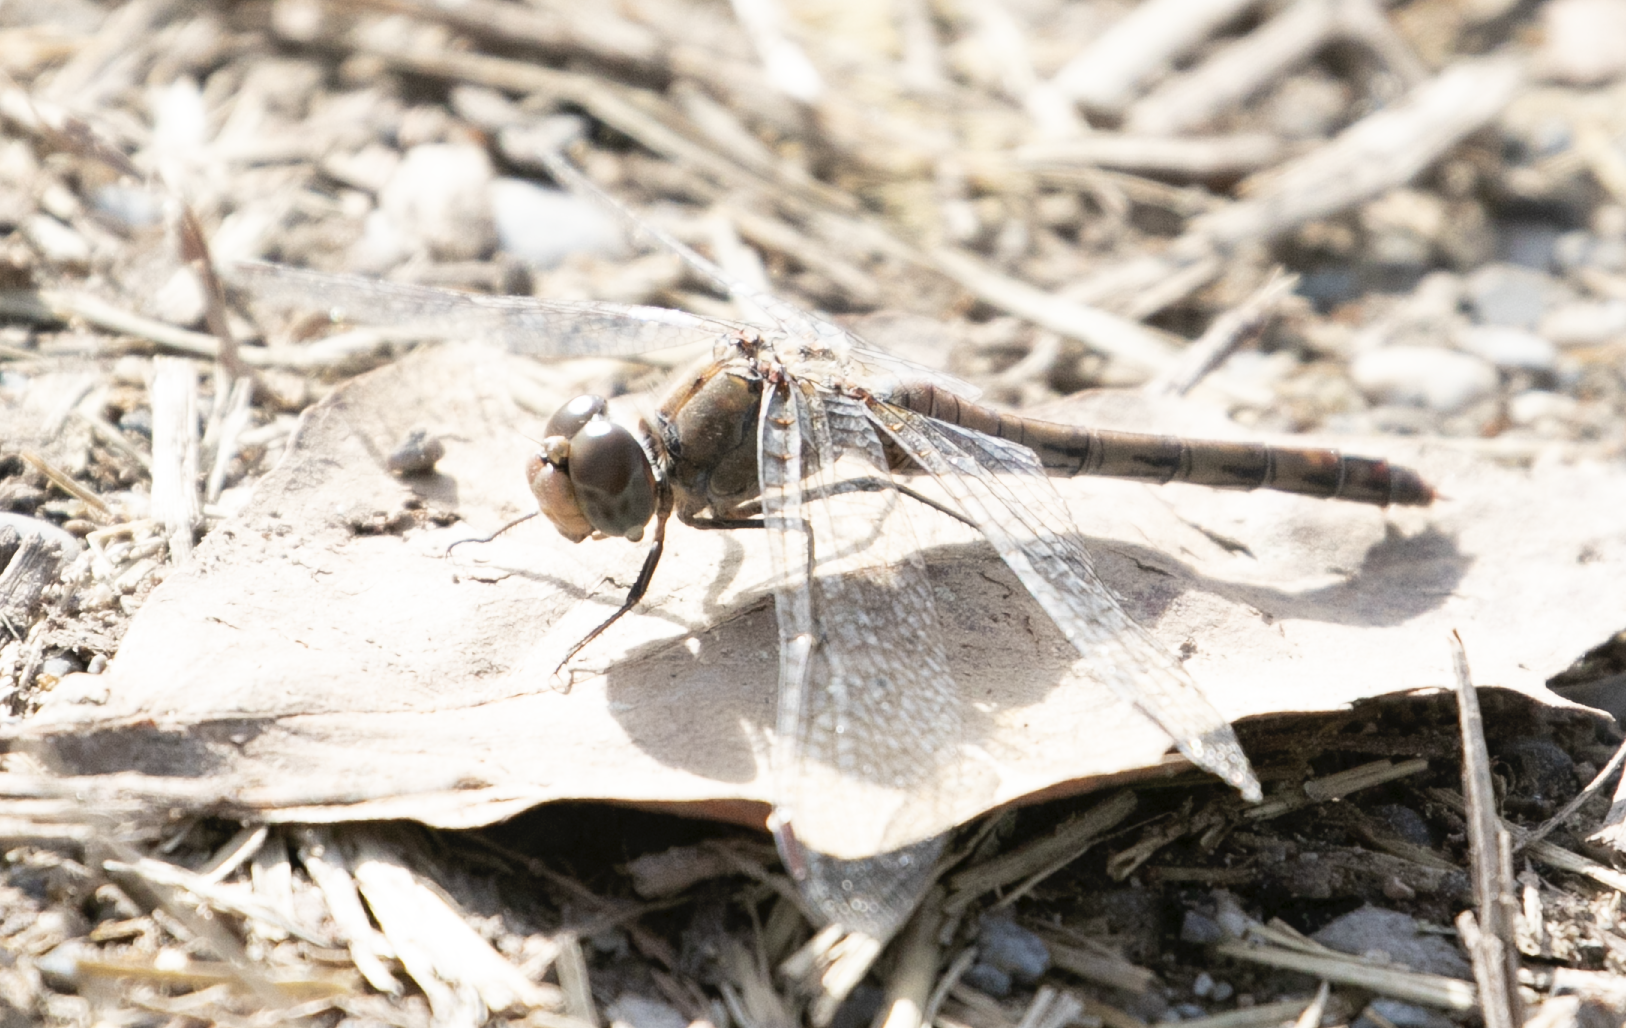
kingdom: Animalia
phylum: Arthropoda
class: Insecta
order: Odonata
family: Libellulidae
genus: Sympetrum
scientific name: Sympetrum striolatum
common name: Common darter
